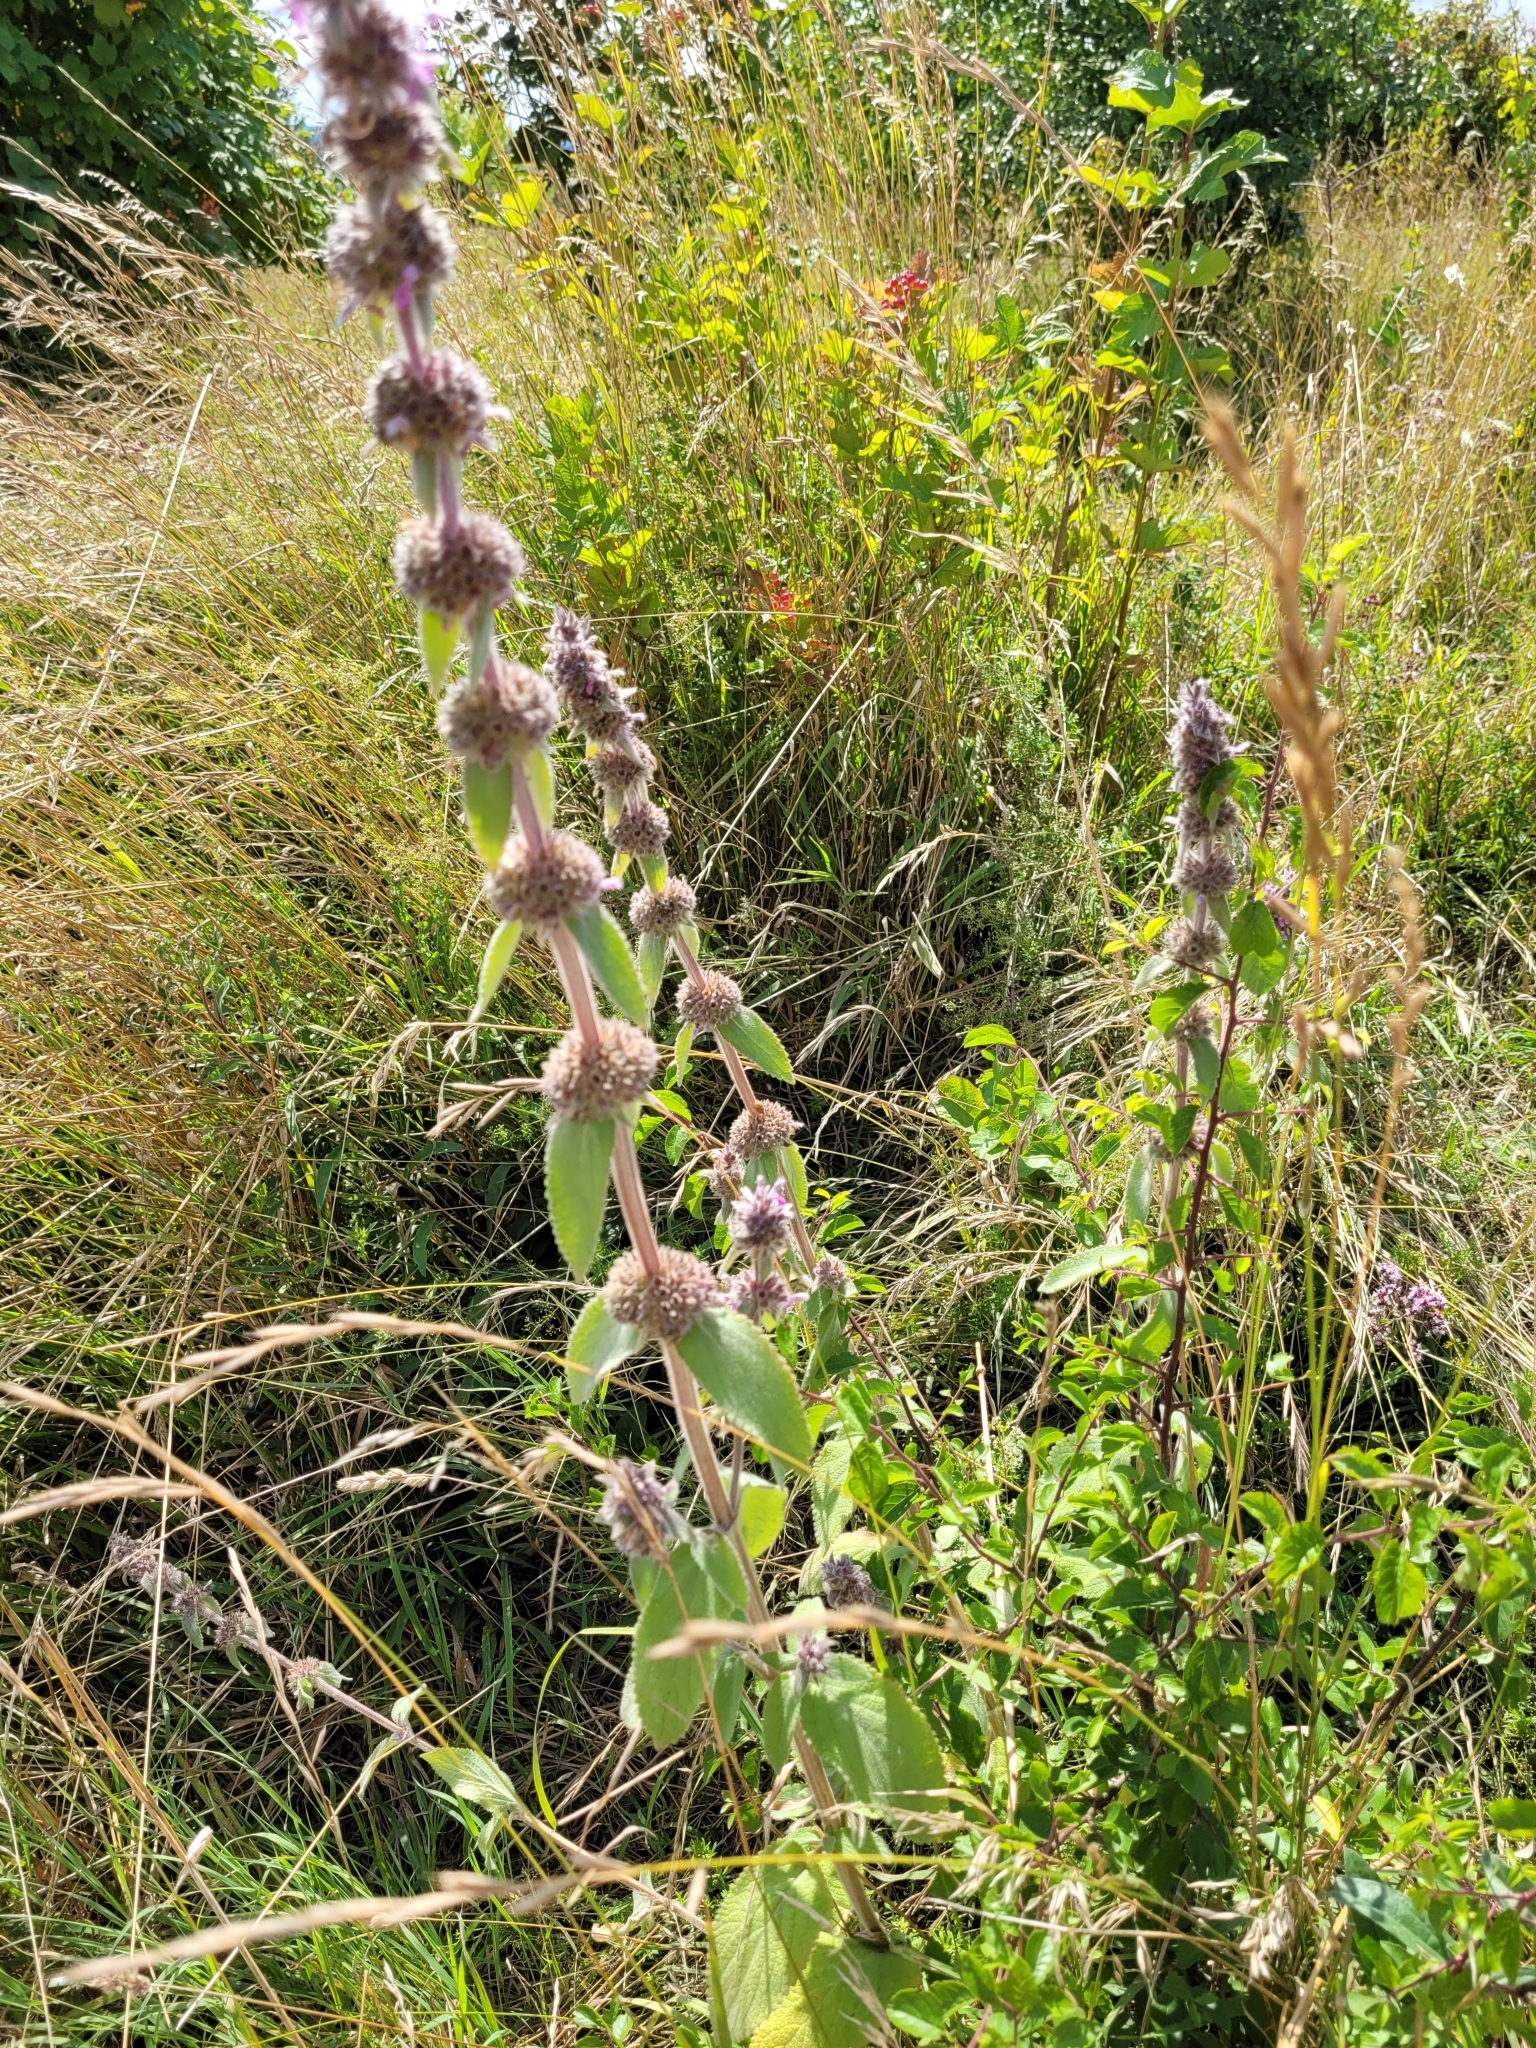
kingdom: Plantae
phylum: Tracheophyta
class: Magnoliopsida
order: Lamiales
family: Lamiaceae
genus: Stachys
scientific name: Stachys germanica
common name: Downy woundwort
